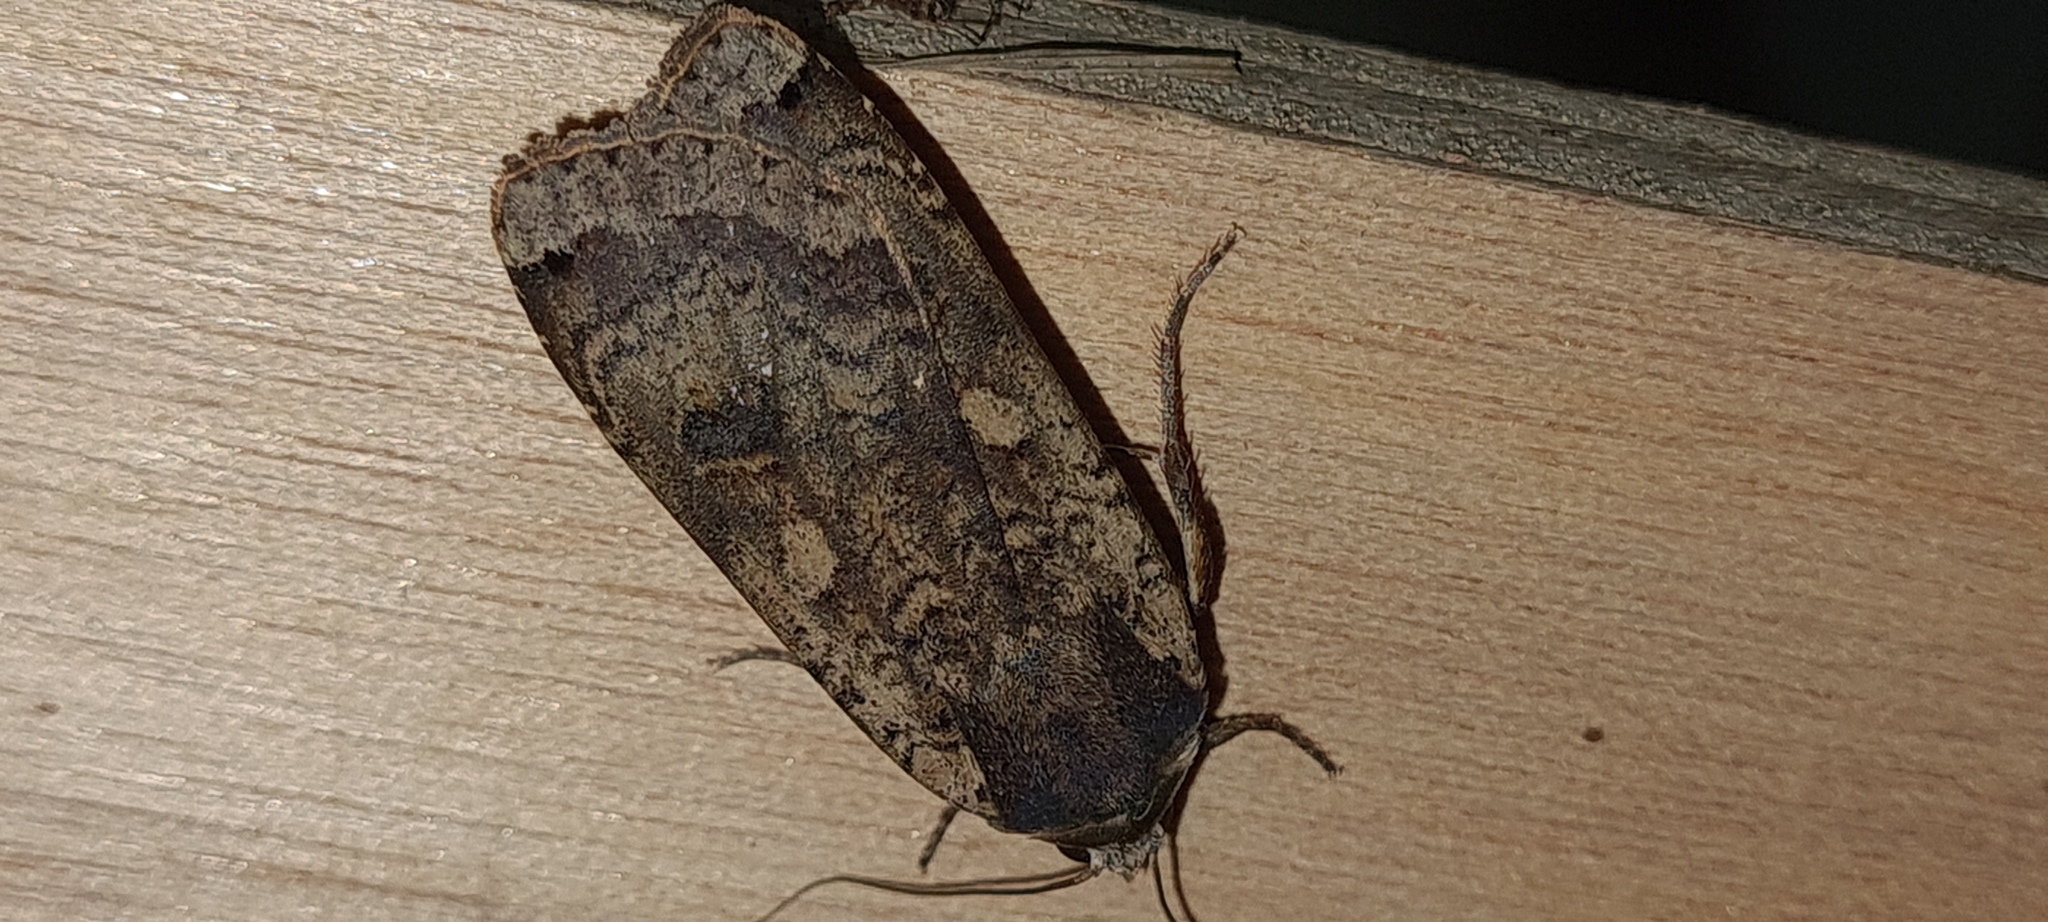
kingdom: Animalia
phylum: Arthropoda
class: Insecta
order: Lepidoptera
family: Noctuidae
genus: Noctua
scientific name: Noctua pronuba
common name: Large yellow underwing
